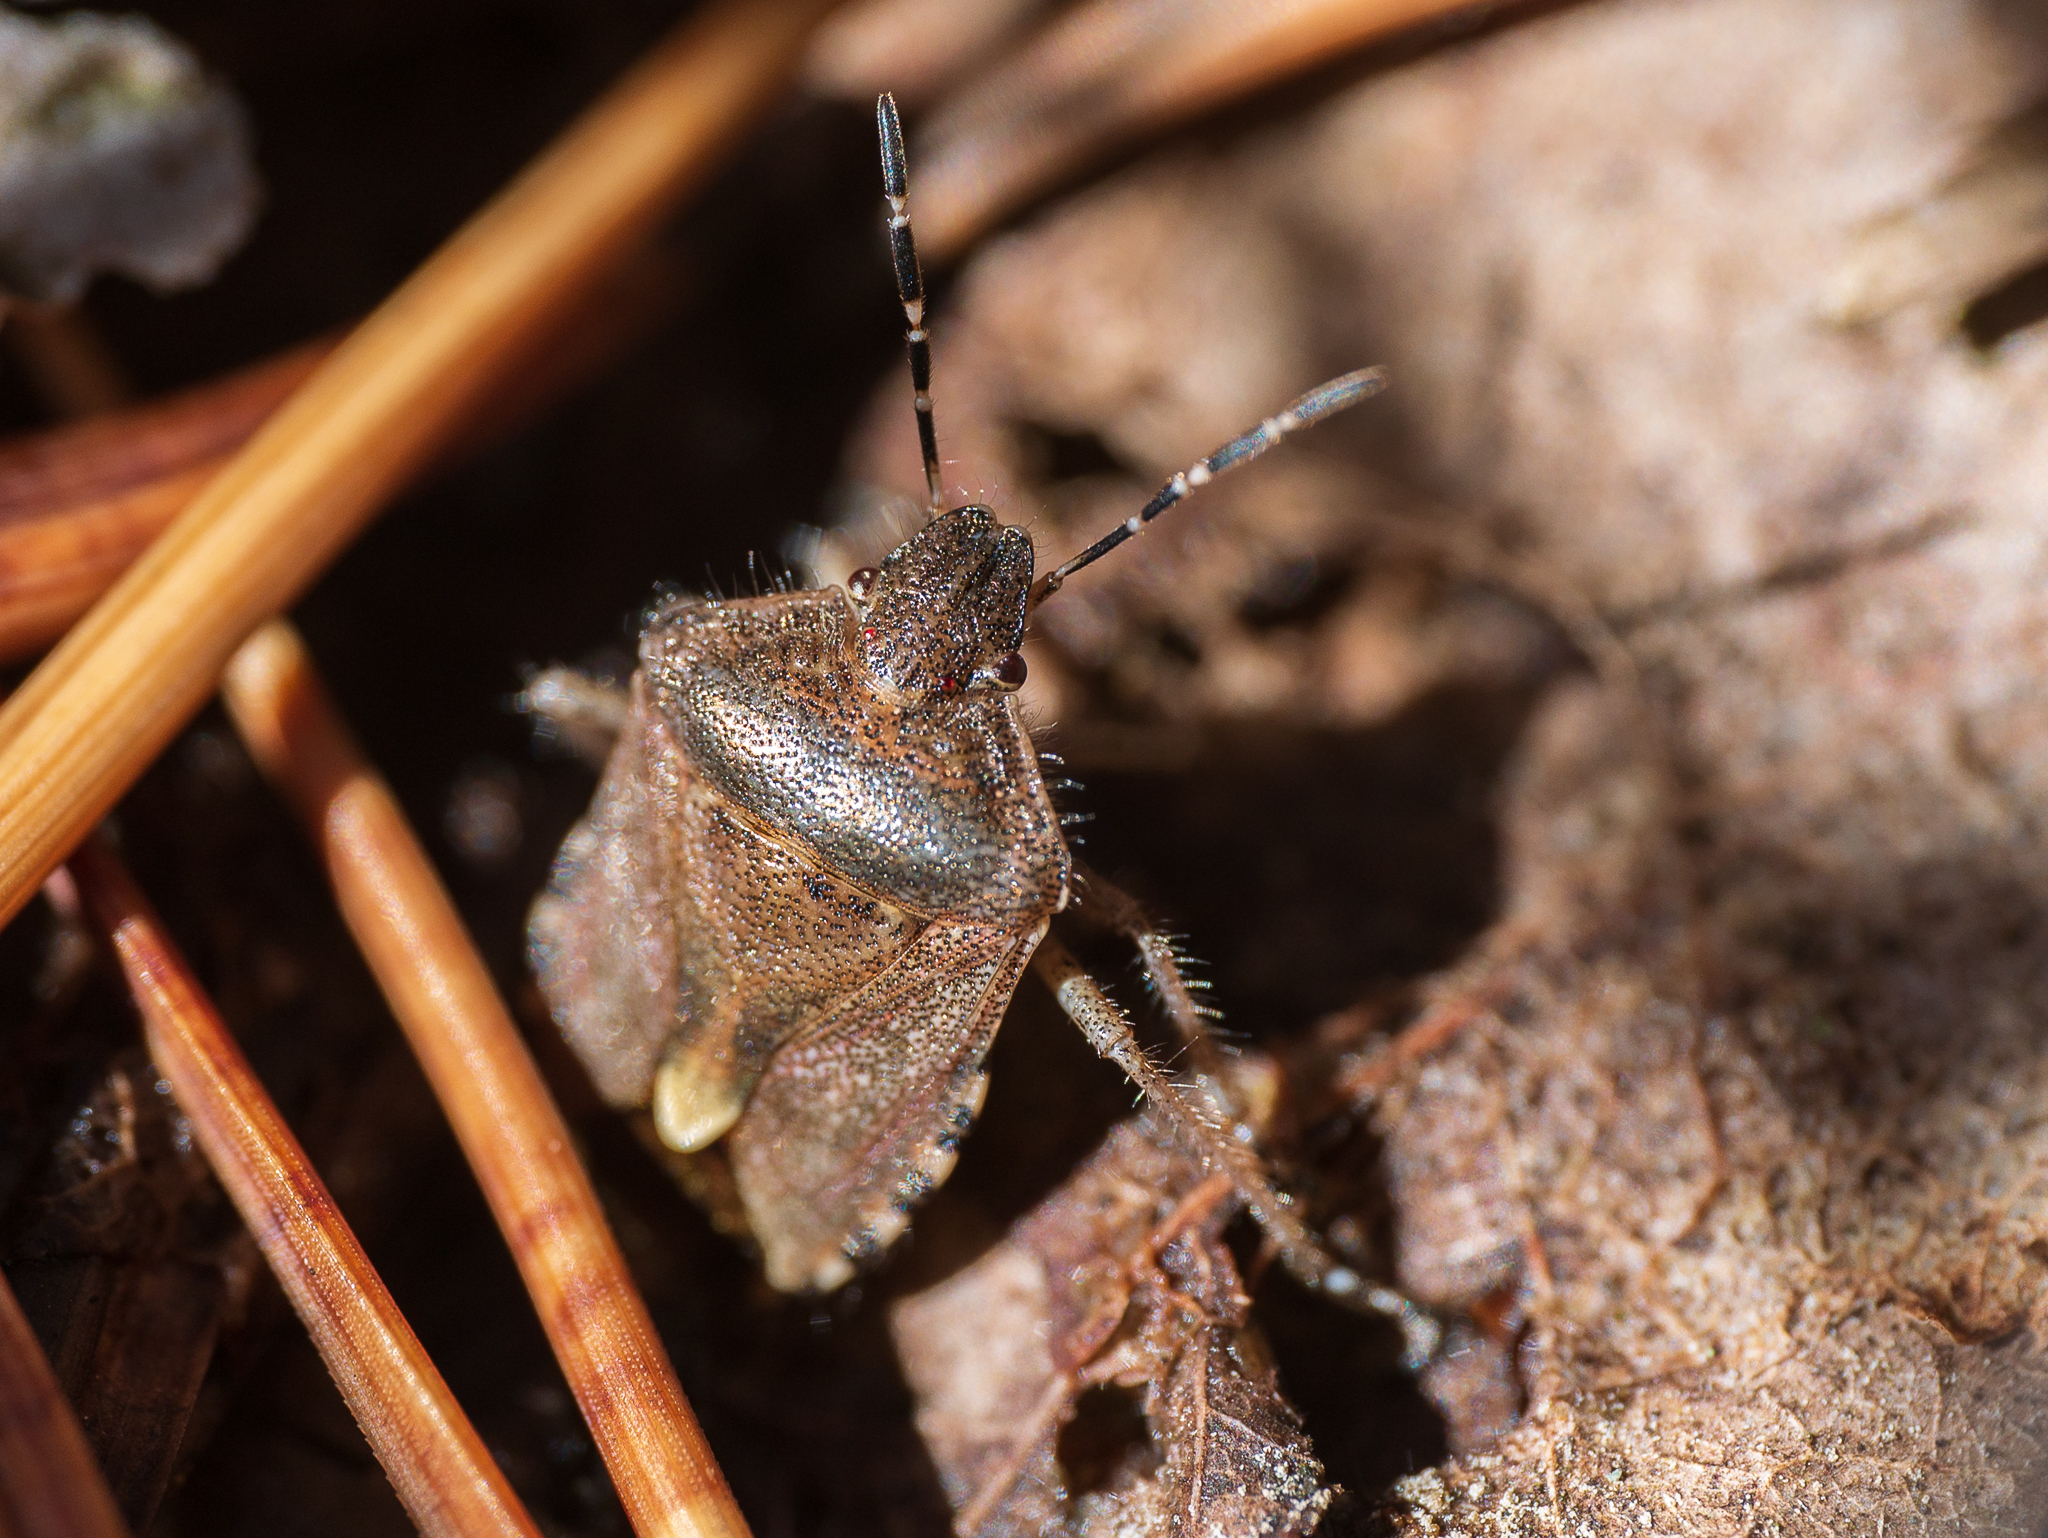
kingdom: Animalia
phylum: Arthropoda
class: Insecta
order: Hemiptera
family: Pentatomidae
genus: Dolycoris
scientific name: Dolycoris baccarum
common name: Sloe bug
